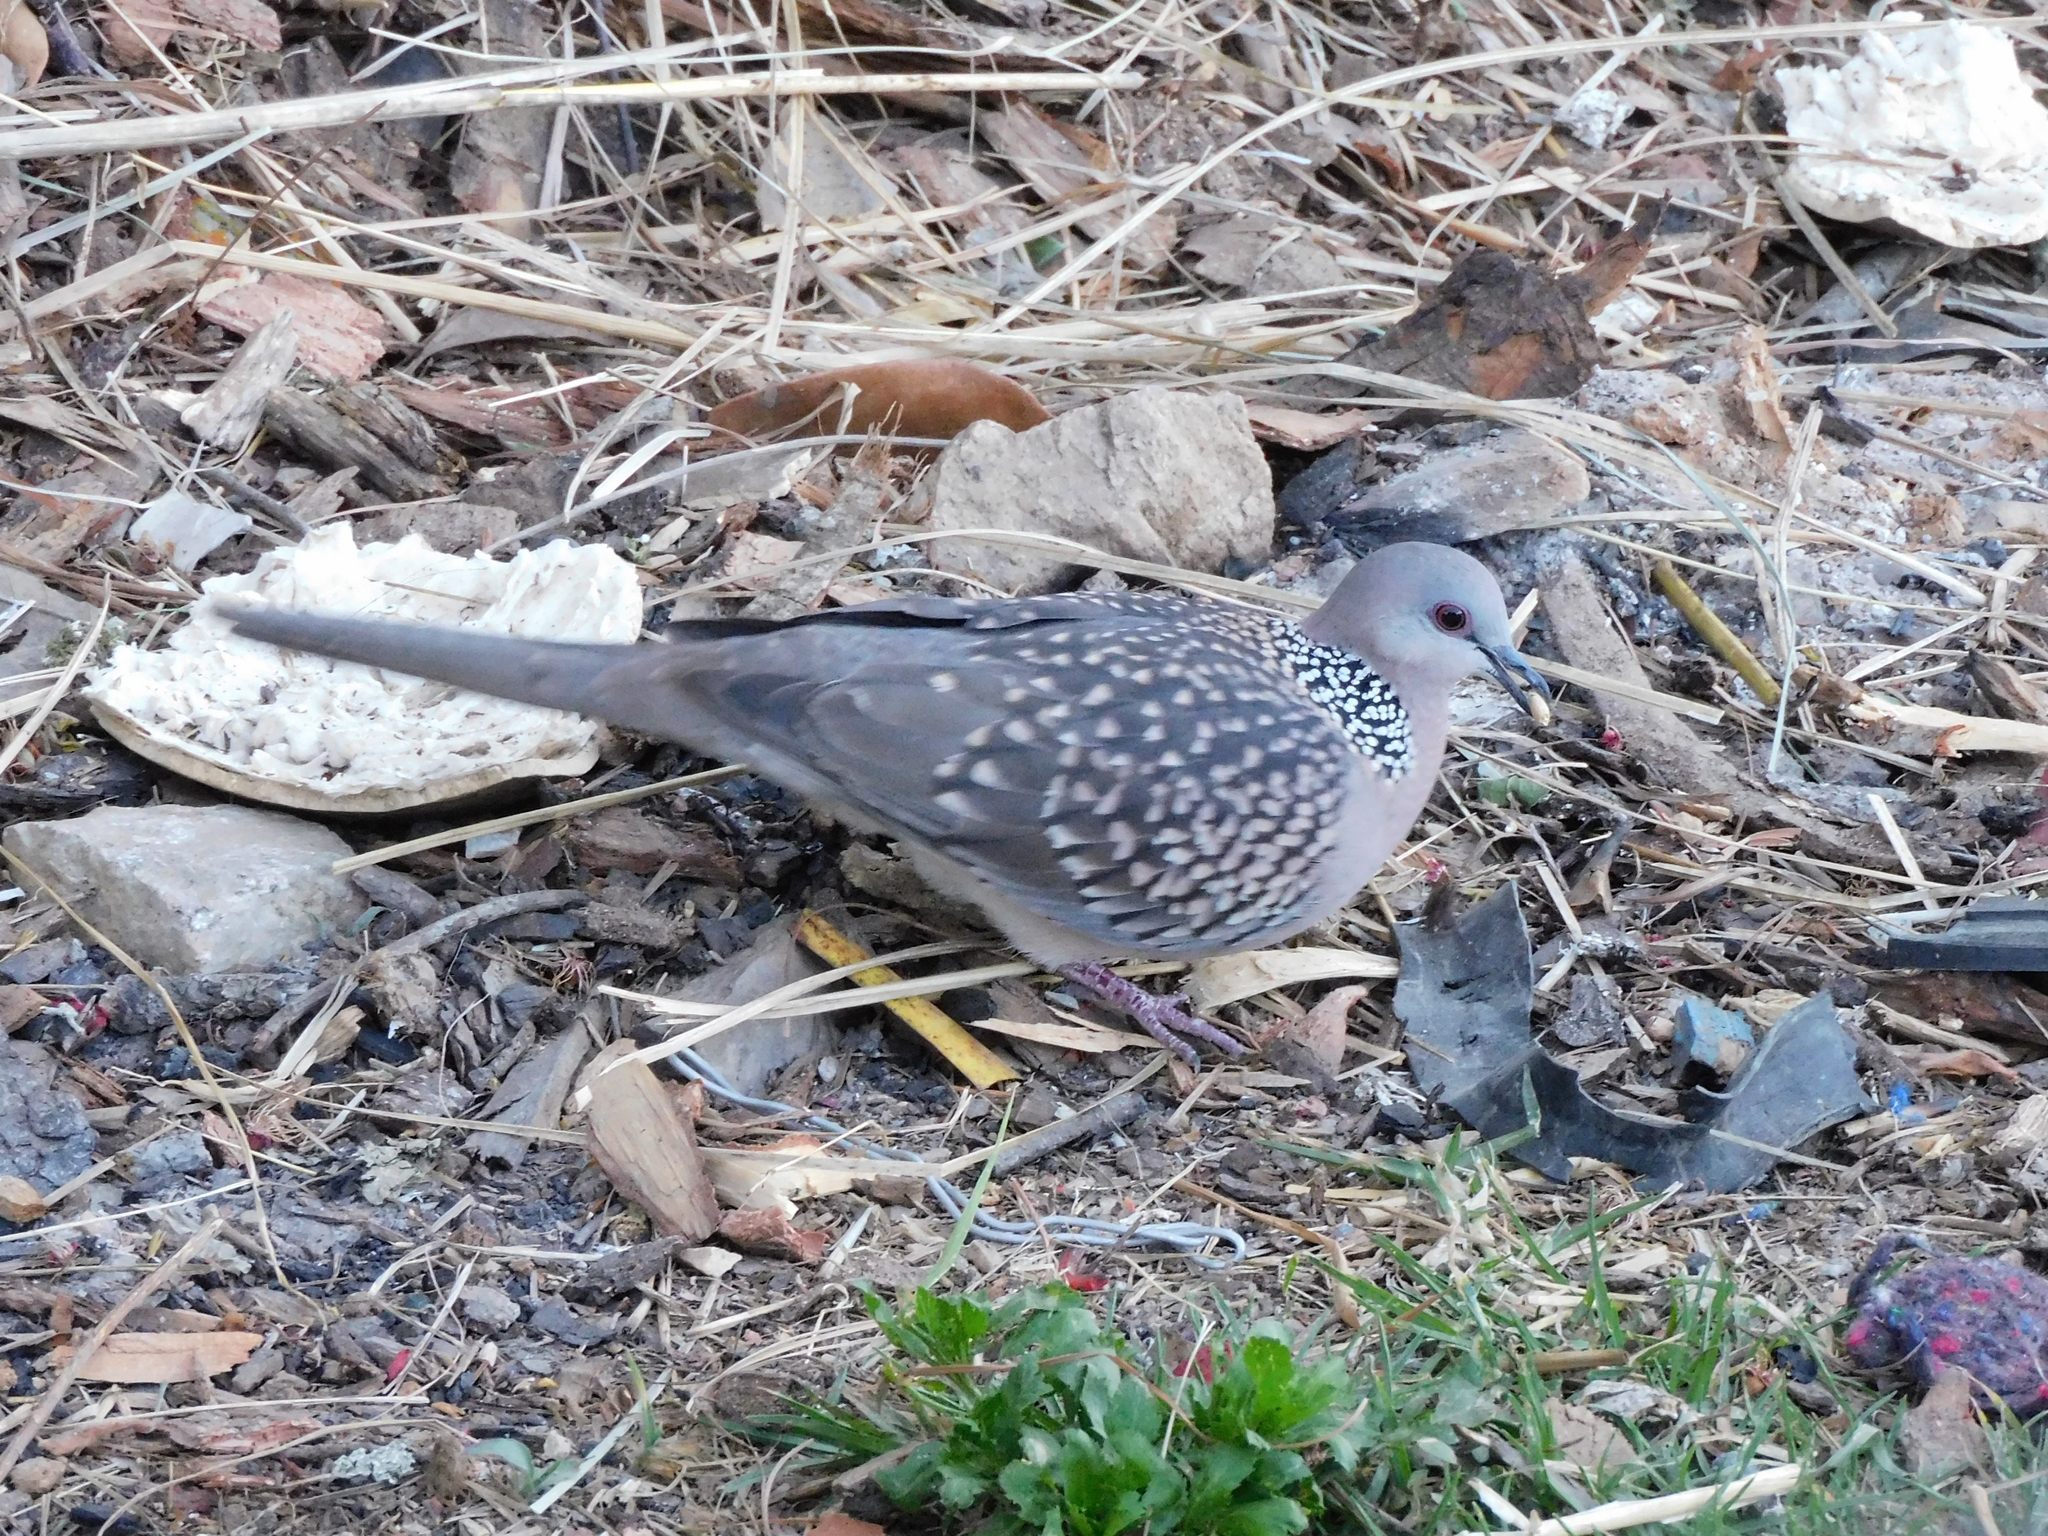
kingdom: Animalia
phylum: Chordata
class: Aves
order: Columbiformes
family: Columbidae
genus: Spilopelia
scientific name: Spilopelia chinensis
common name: Spotted dove
